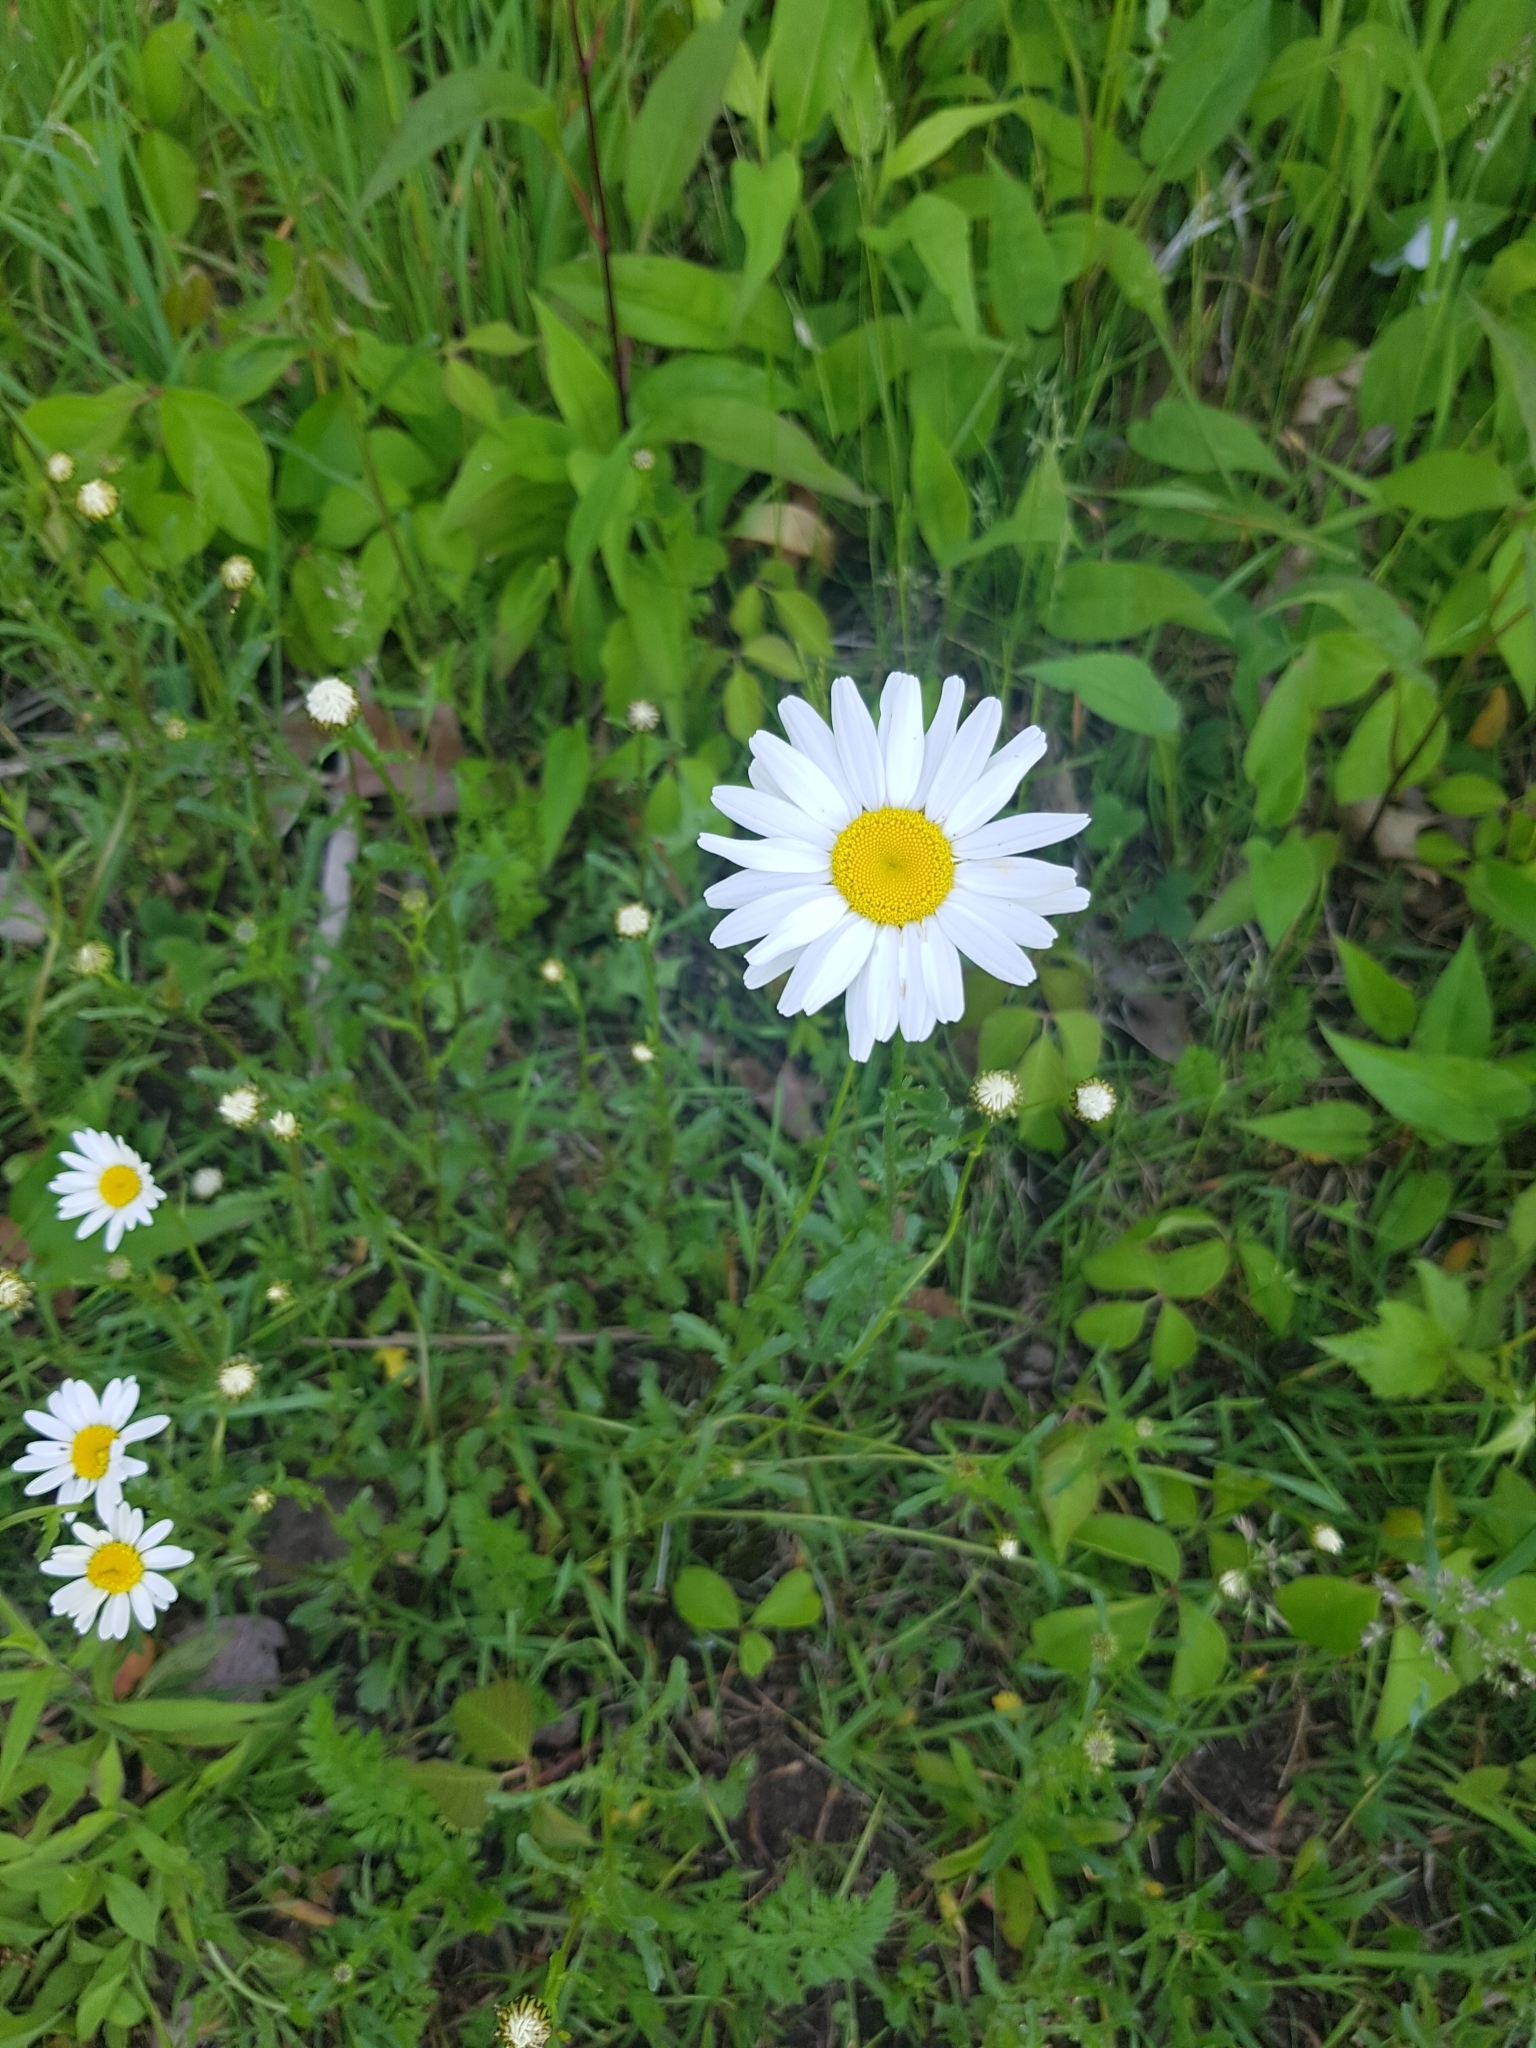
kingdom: Plantae
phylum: Tracheophyta
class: Magnoliopsida
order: Asterales
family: Asteraceae
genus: Leucanthemum
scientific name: Leucanthemum vulgare
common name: Oxeye daisy
